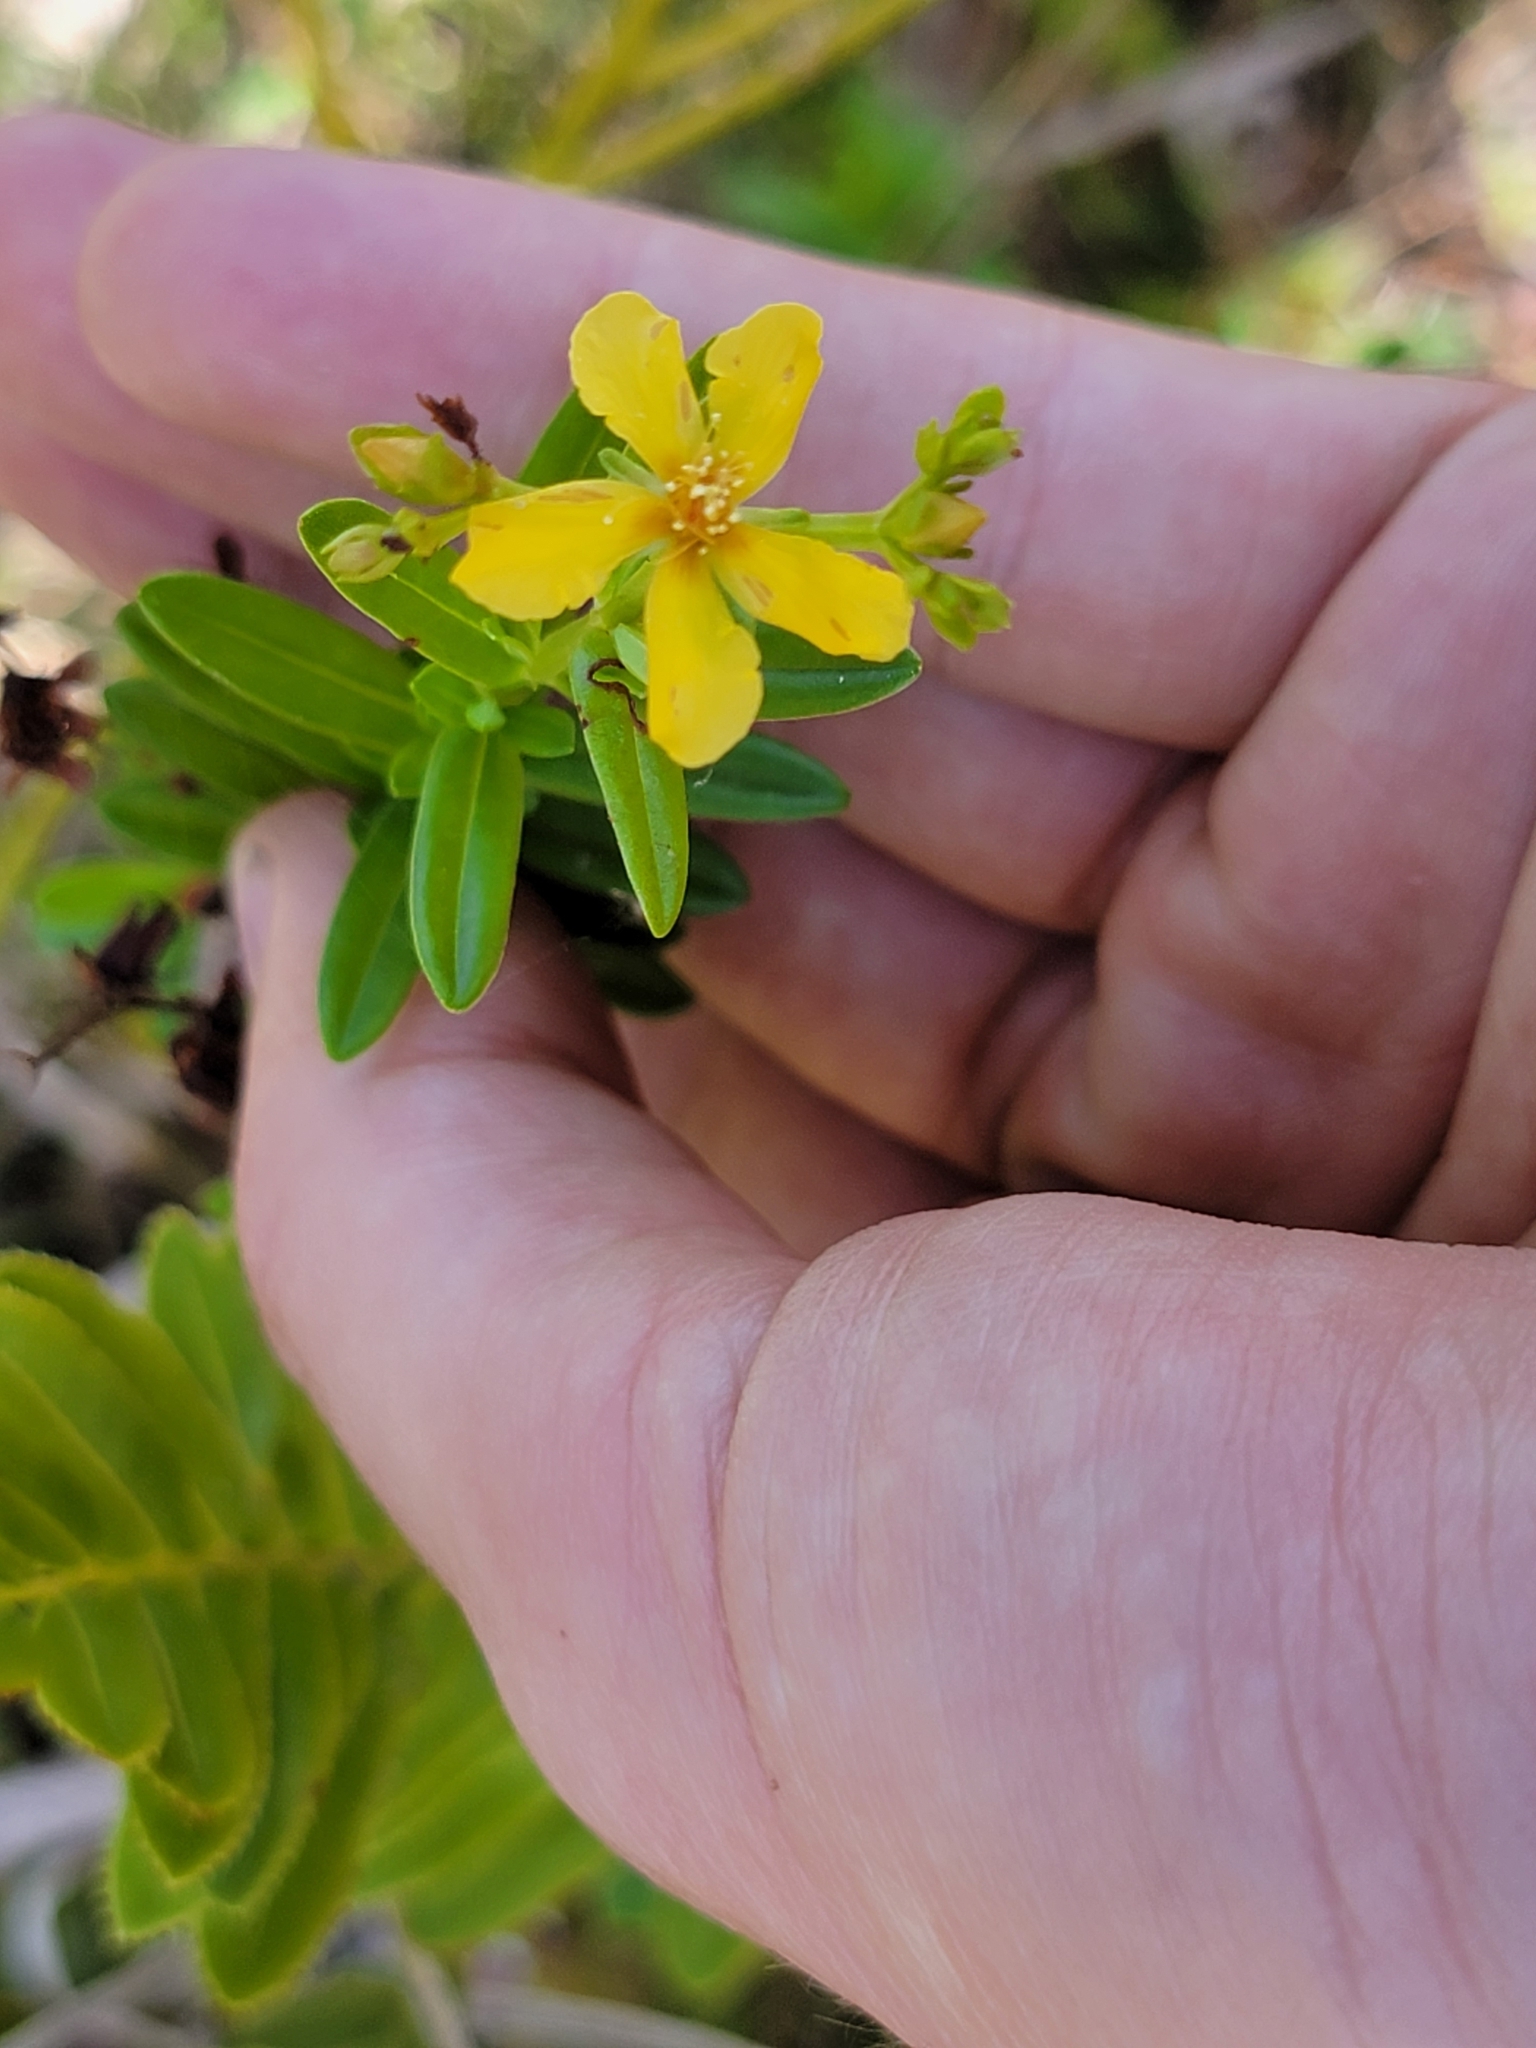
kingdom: Plantae
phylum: Tracheophyta
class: Magnoliopsida
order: Malpighiales
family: Hypericaceae
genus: Hypericum
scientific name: Hypericum cistifolium
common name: Round-pod st. john's-wort
